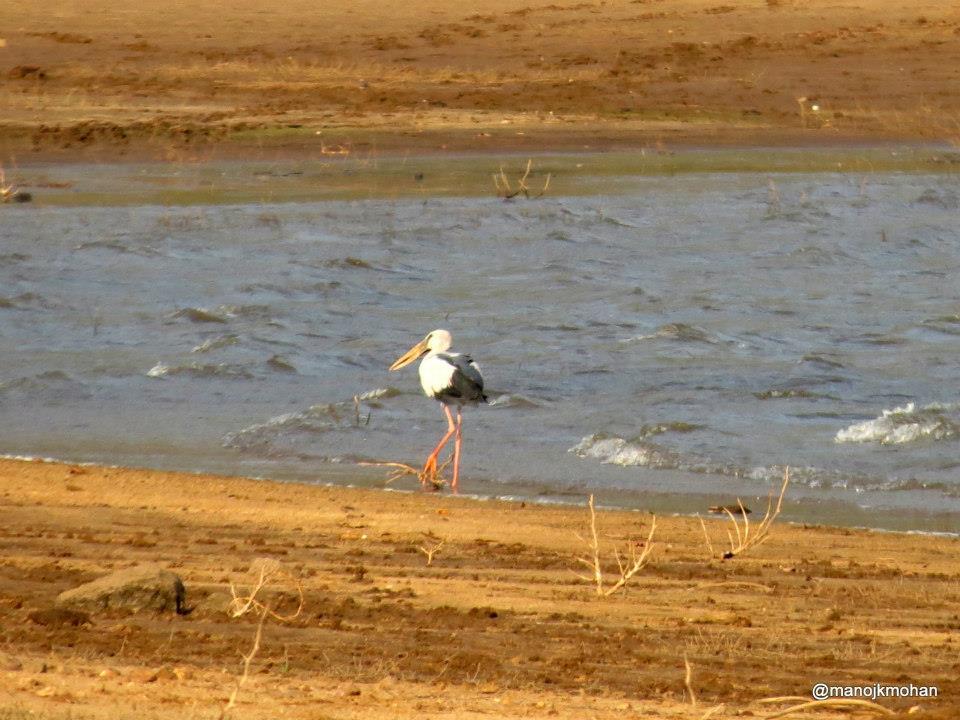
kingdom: Animalia
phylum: Chordata
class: Aves
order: Ciconiiformes
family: Ciconiidae
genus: Anastomus
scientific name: Anastomus oscitans
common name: Asian openbill
